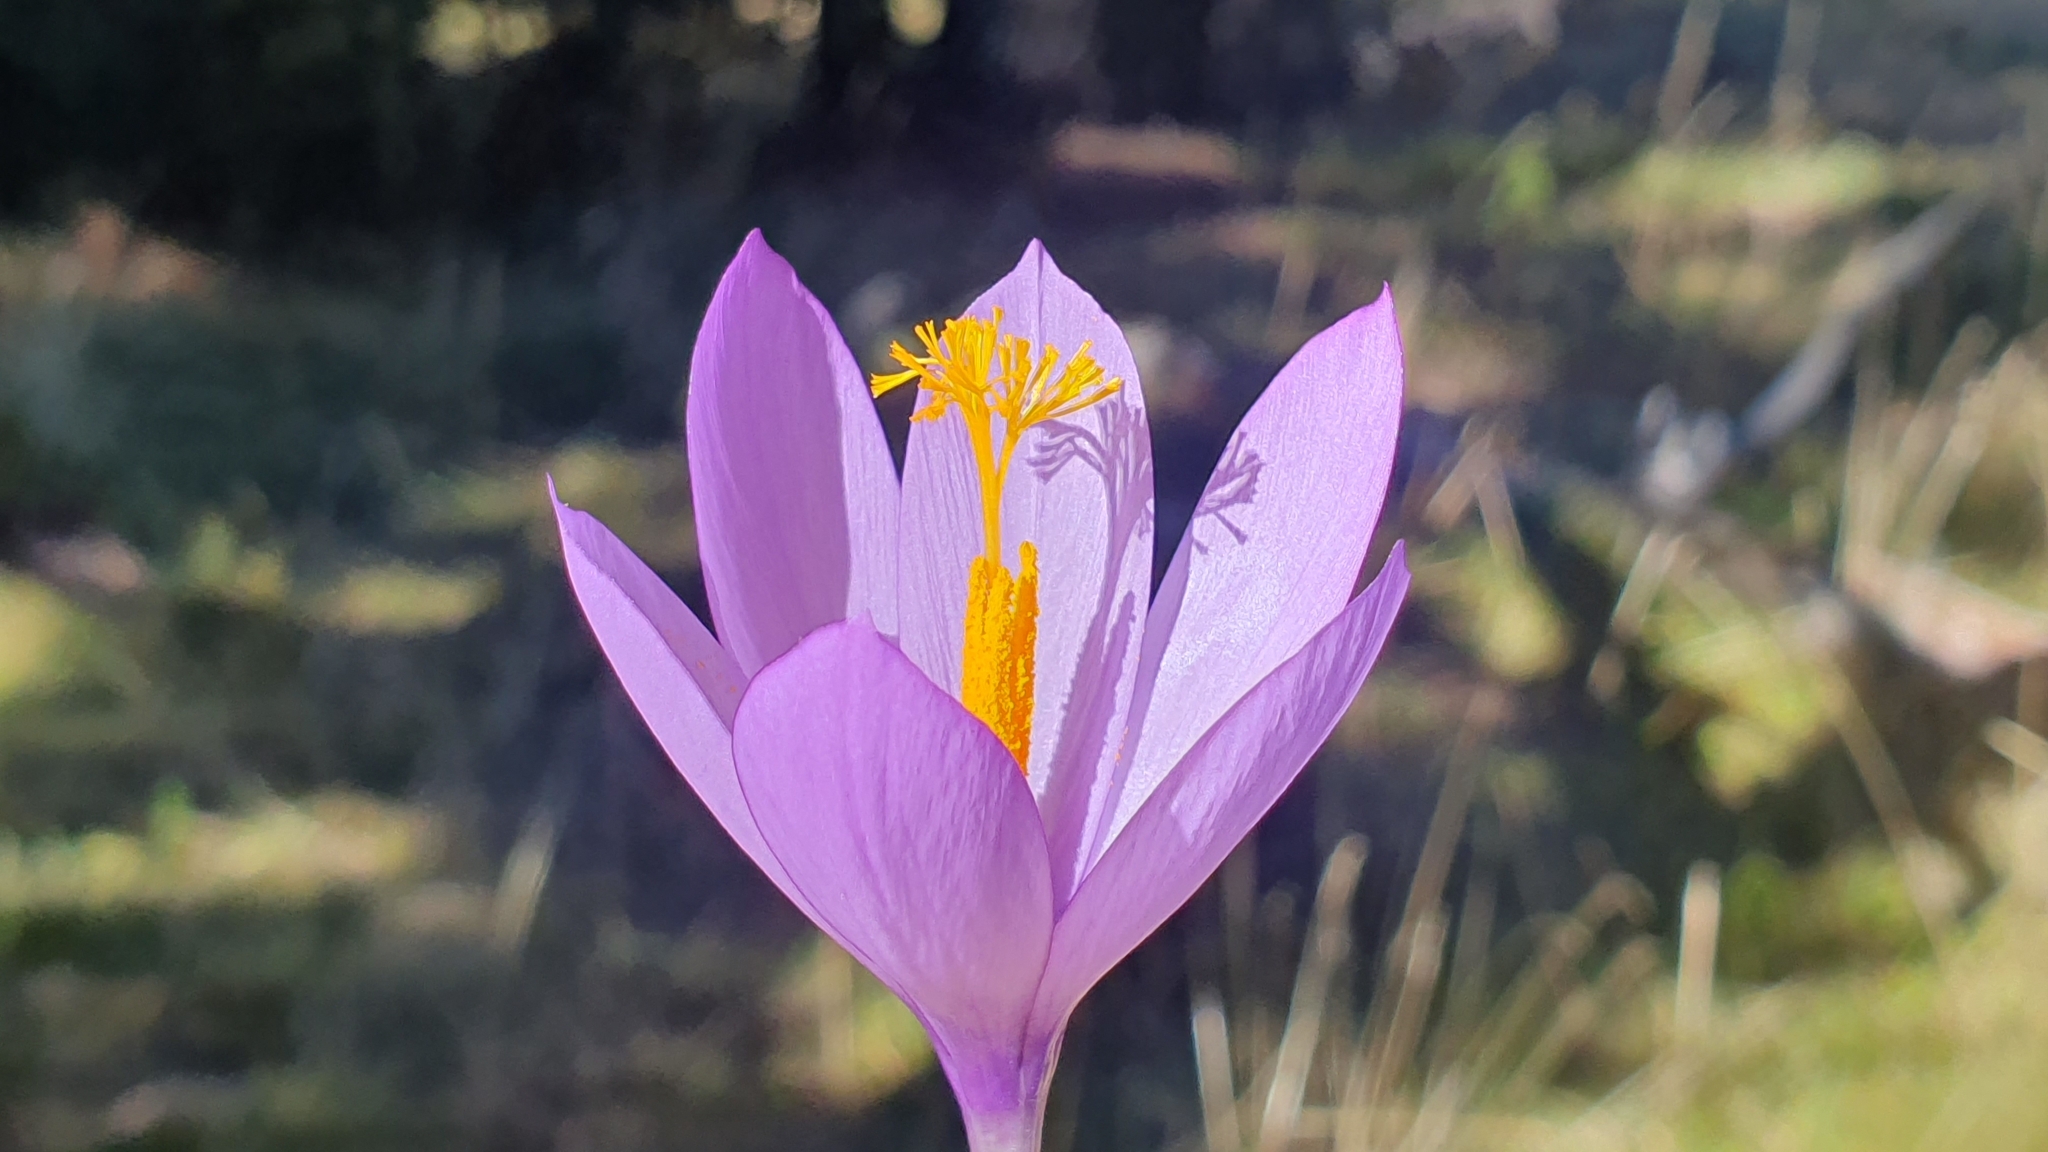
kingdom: Plantae
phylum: Tracheophyta
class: Liliopsida
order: Asparagales
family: Iridaceae
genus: Crocus
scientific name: Crocus nudiflorus
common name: Autumn crocus
